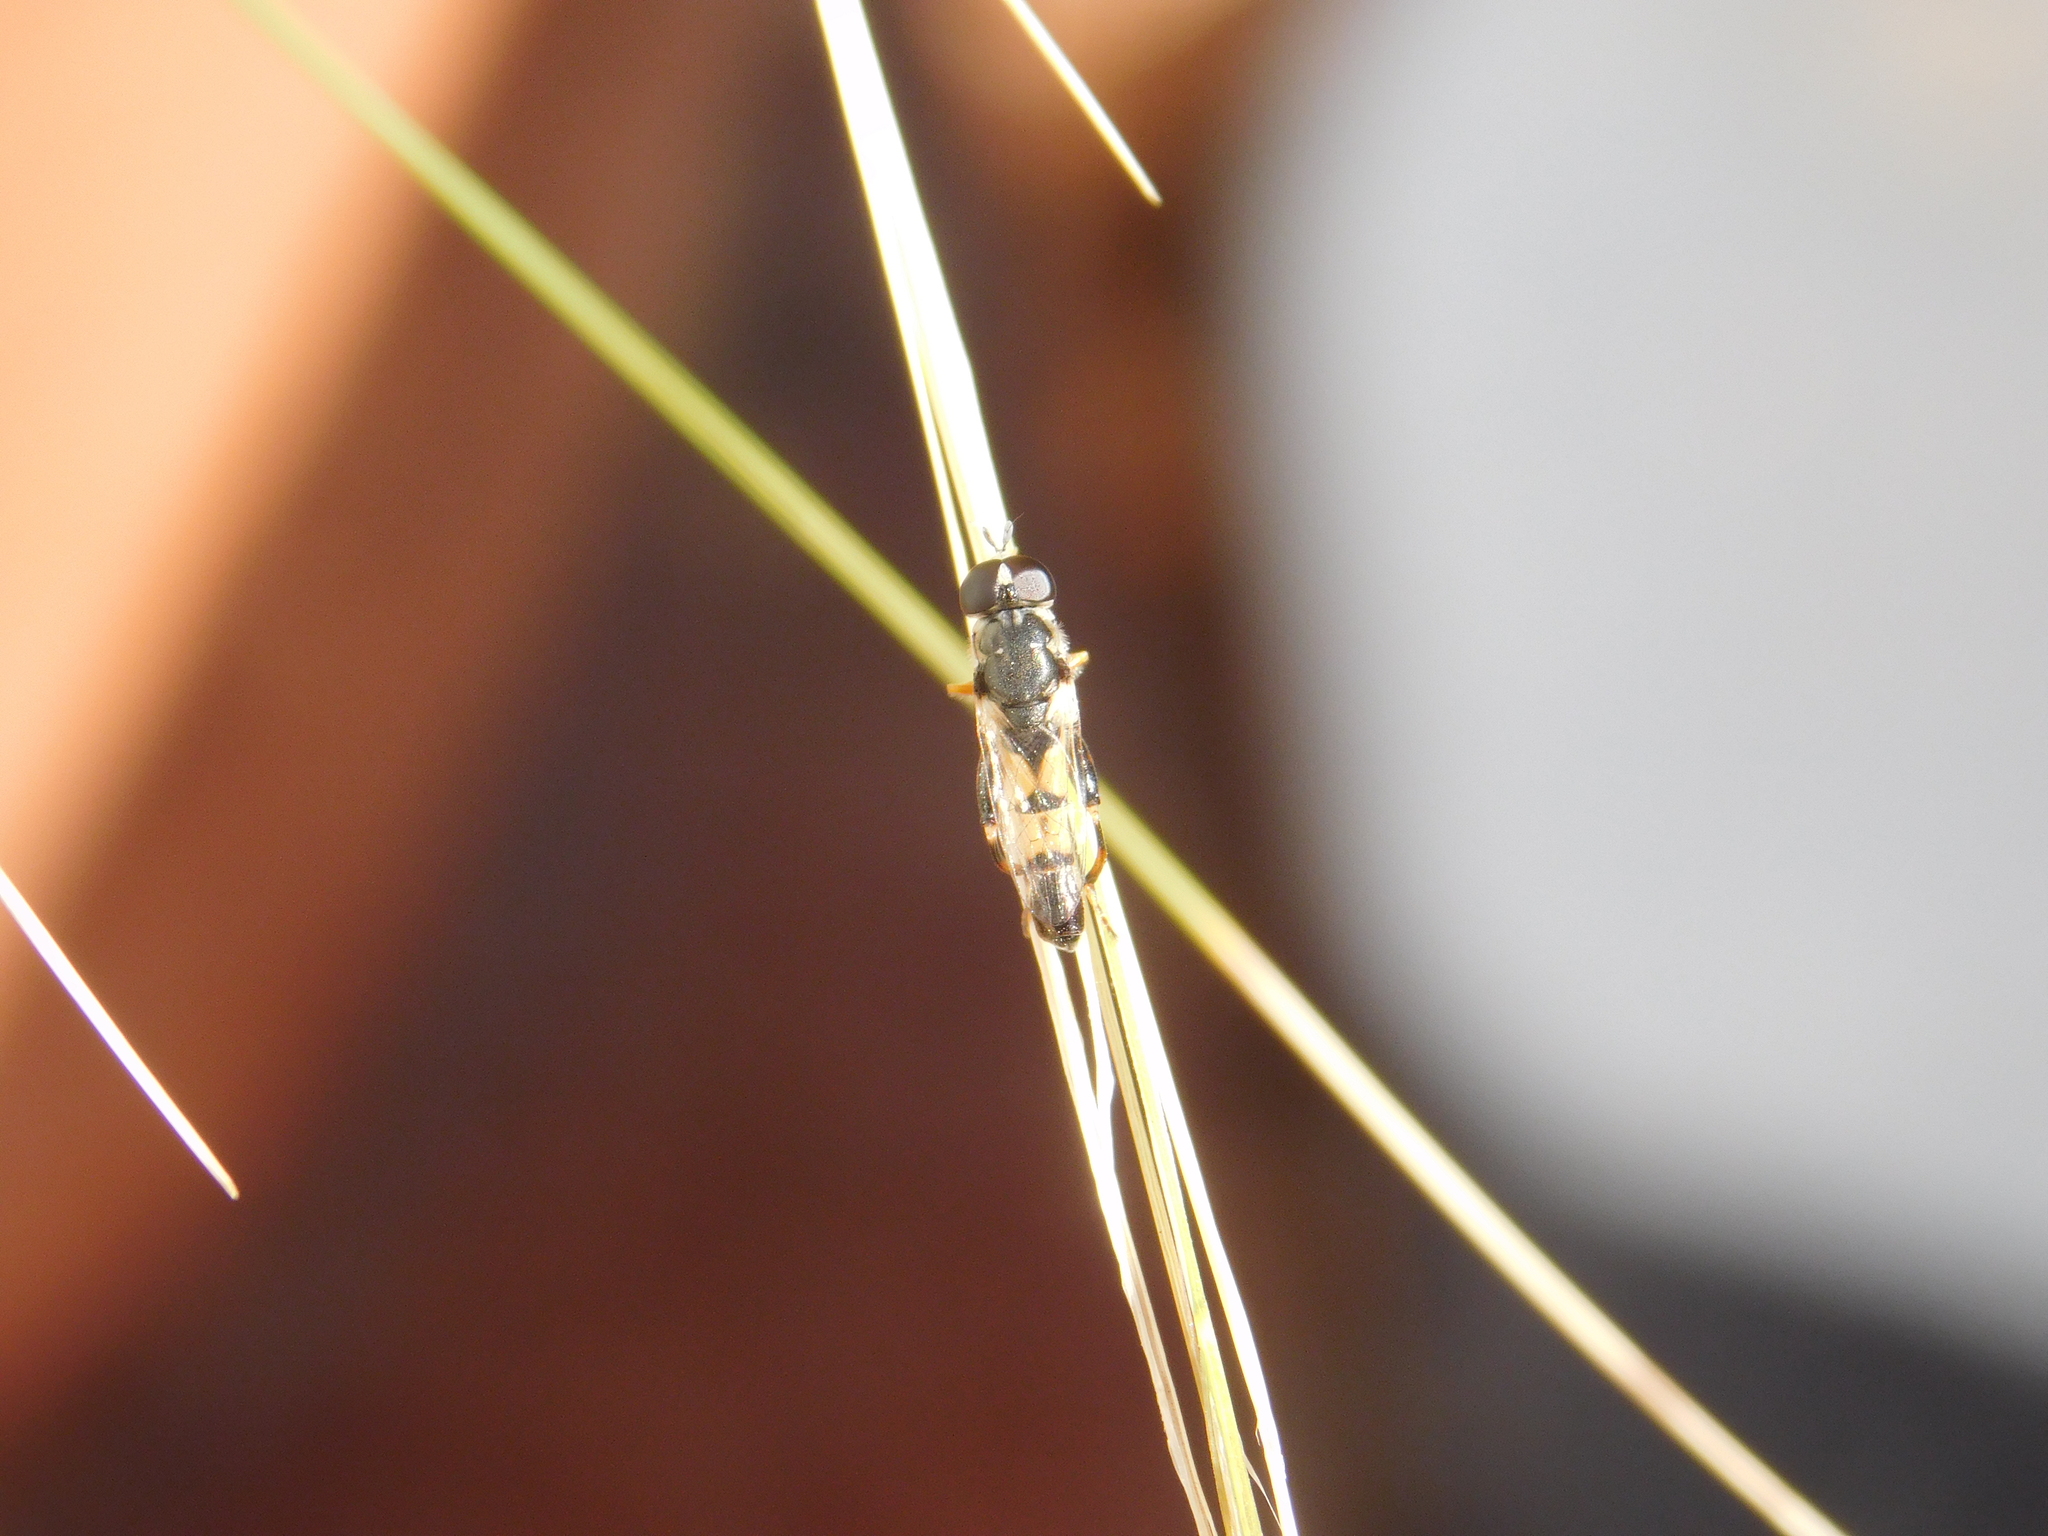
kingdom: Animalia
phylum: Arthropoda
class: Insecta
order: Diptera
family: Syrphidae
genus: Syritta
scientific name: Syritta flaviventris
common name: Syrphid fly
